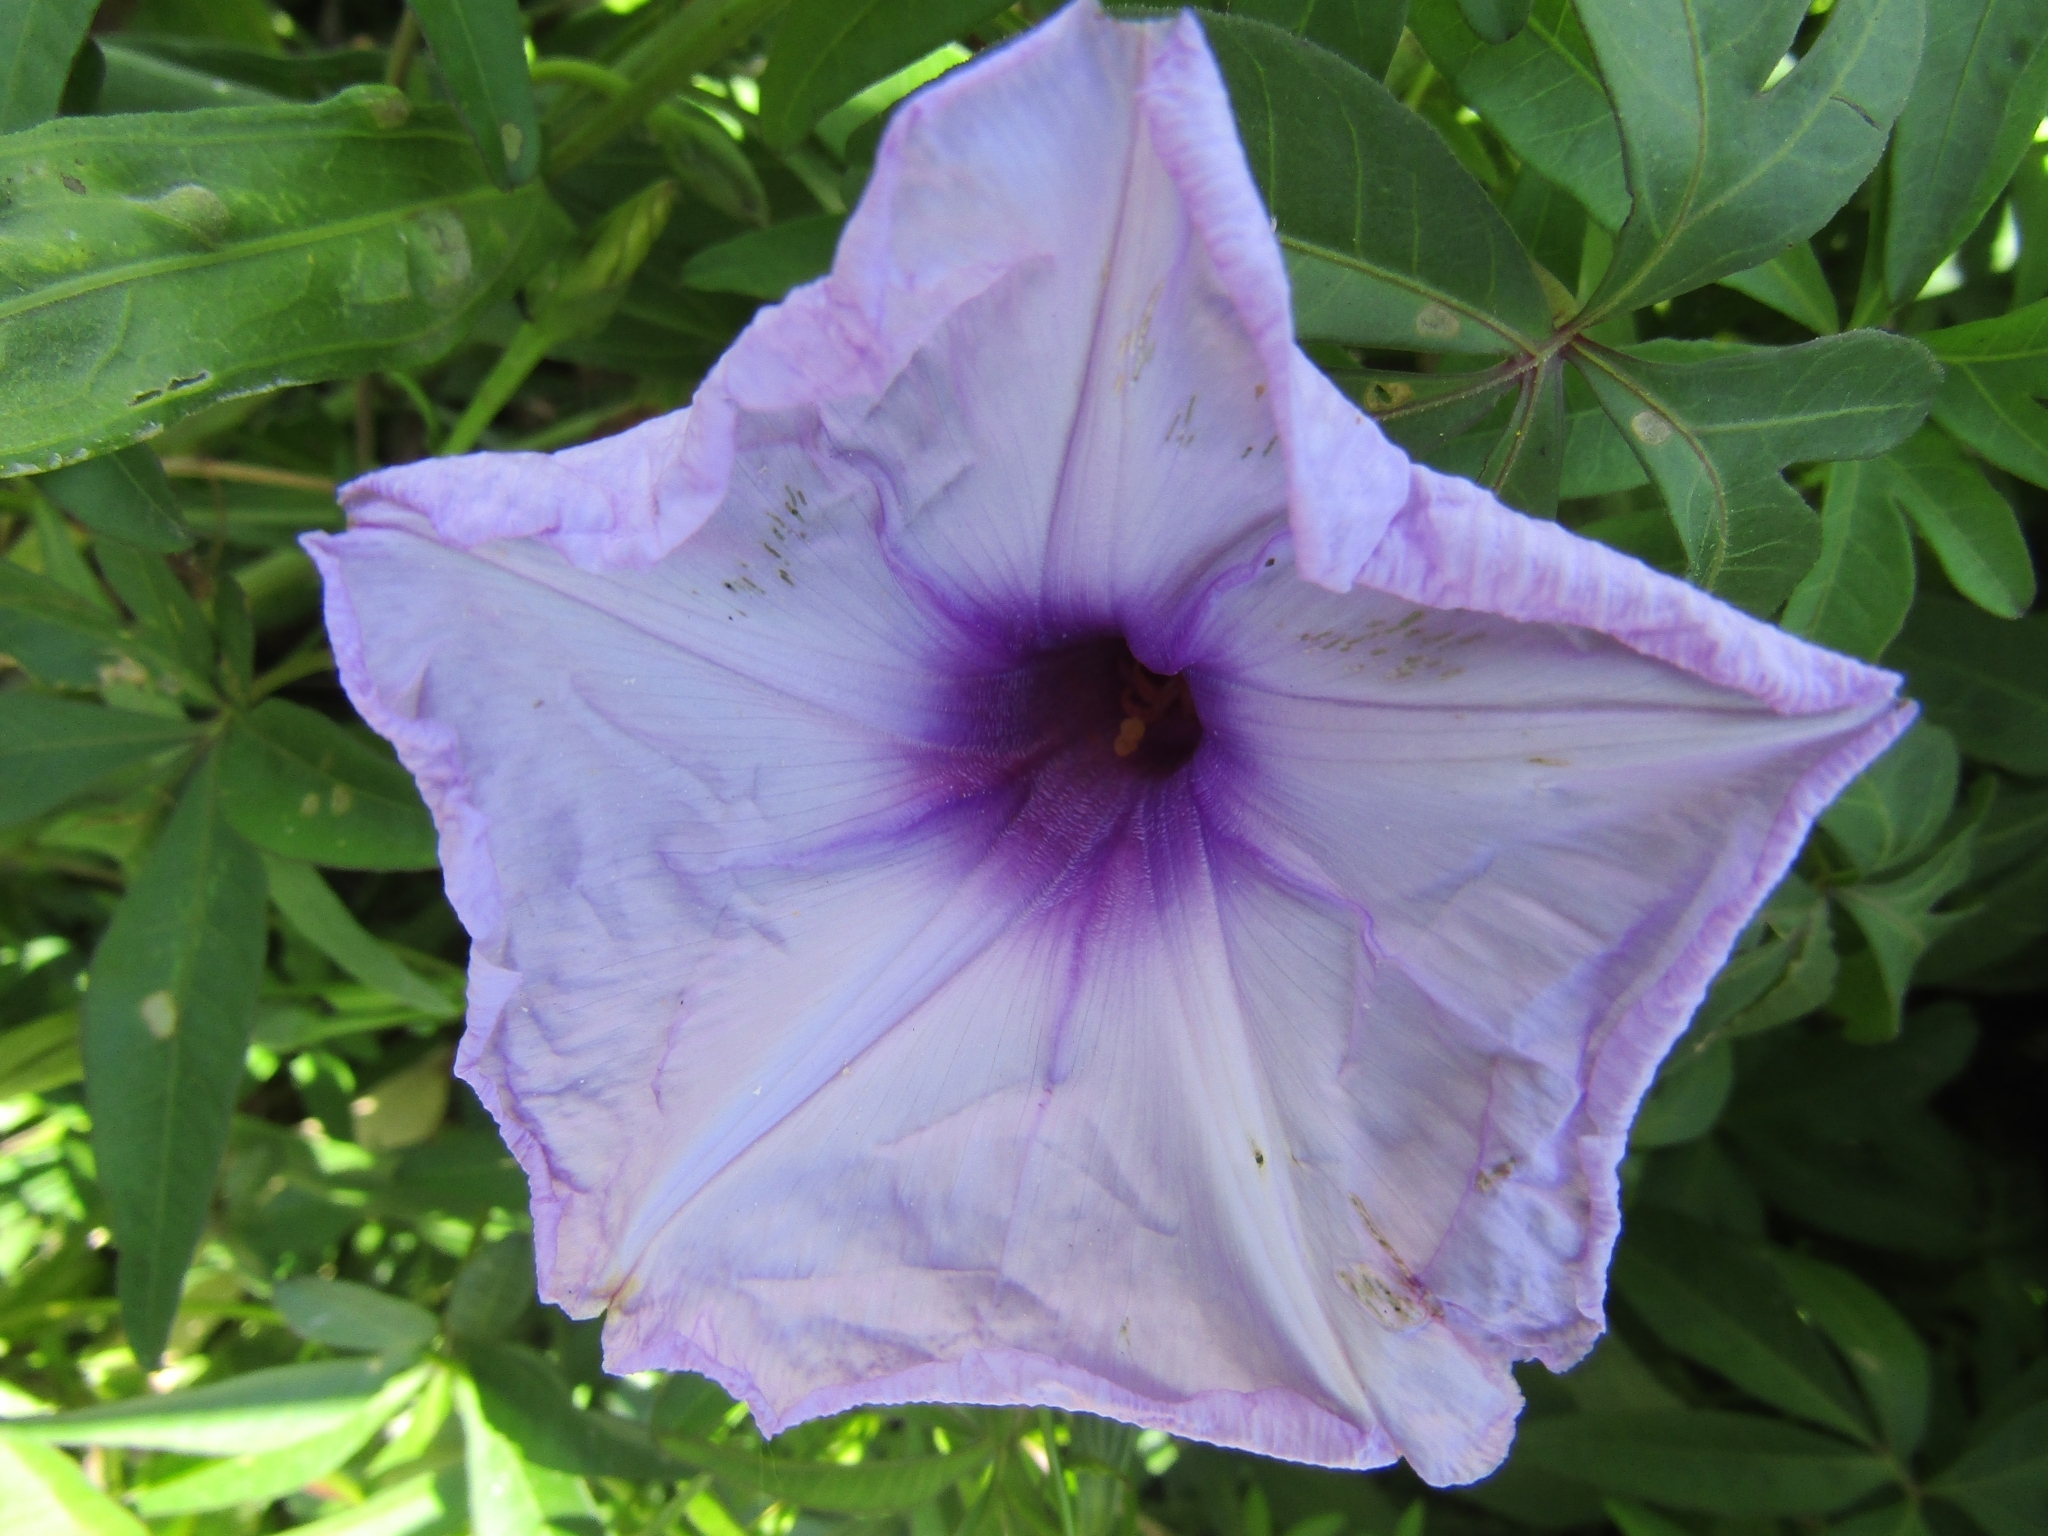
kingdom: Plantae
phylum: Tracheophyta
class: Magnoliopsida
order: Solanales
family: Convolvulaceae
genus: Ipomoea
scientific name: Ipomoea cairica
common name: Mile a minute vine
